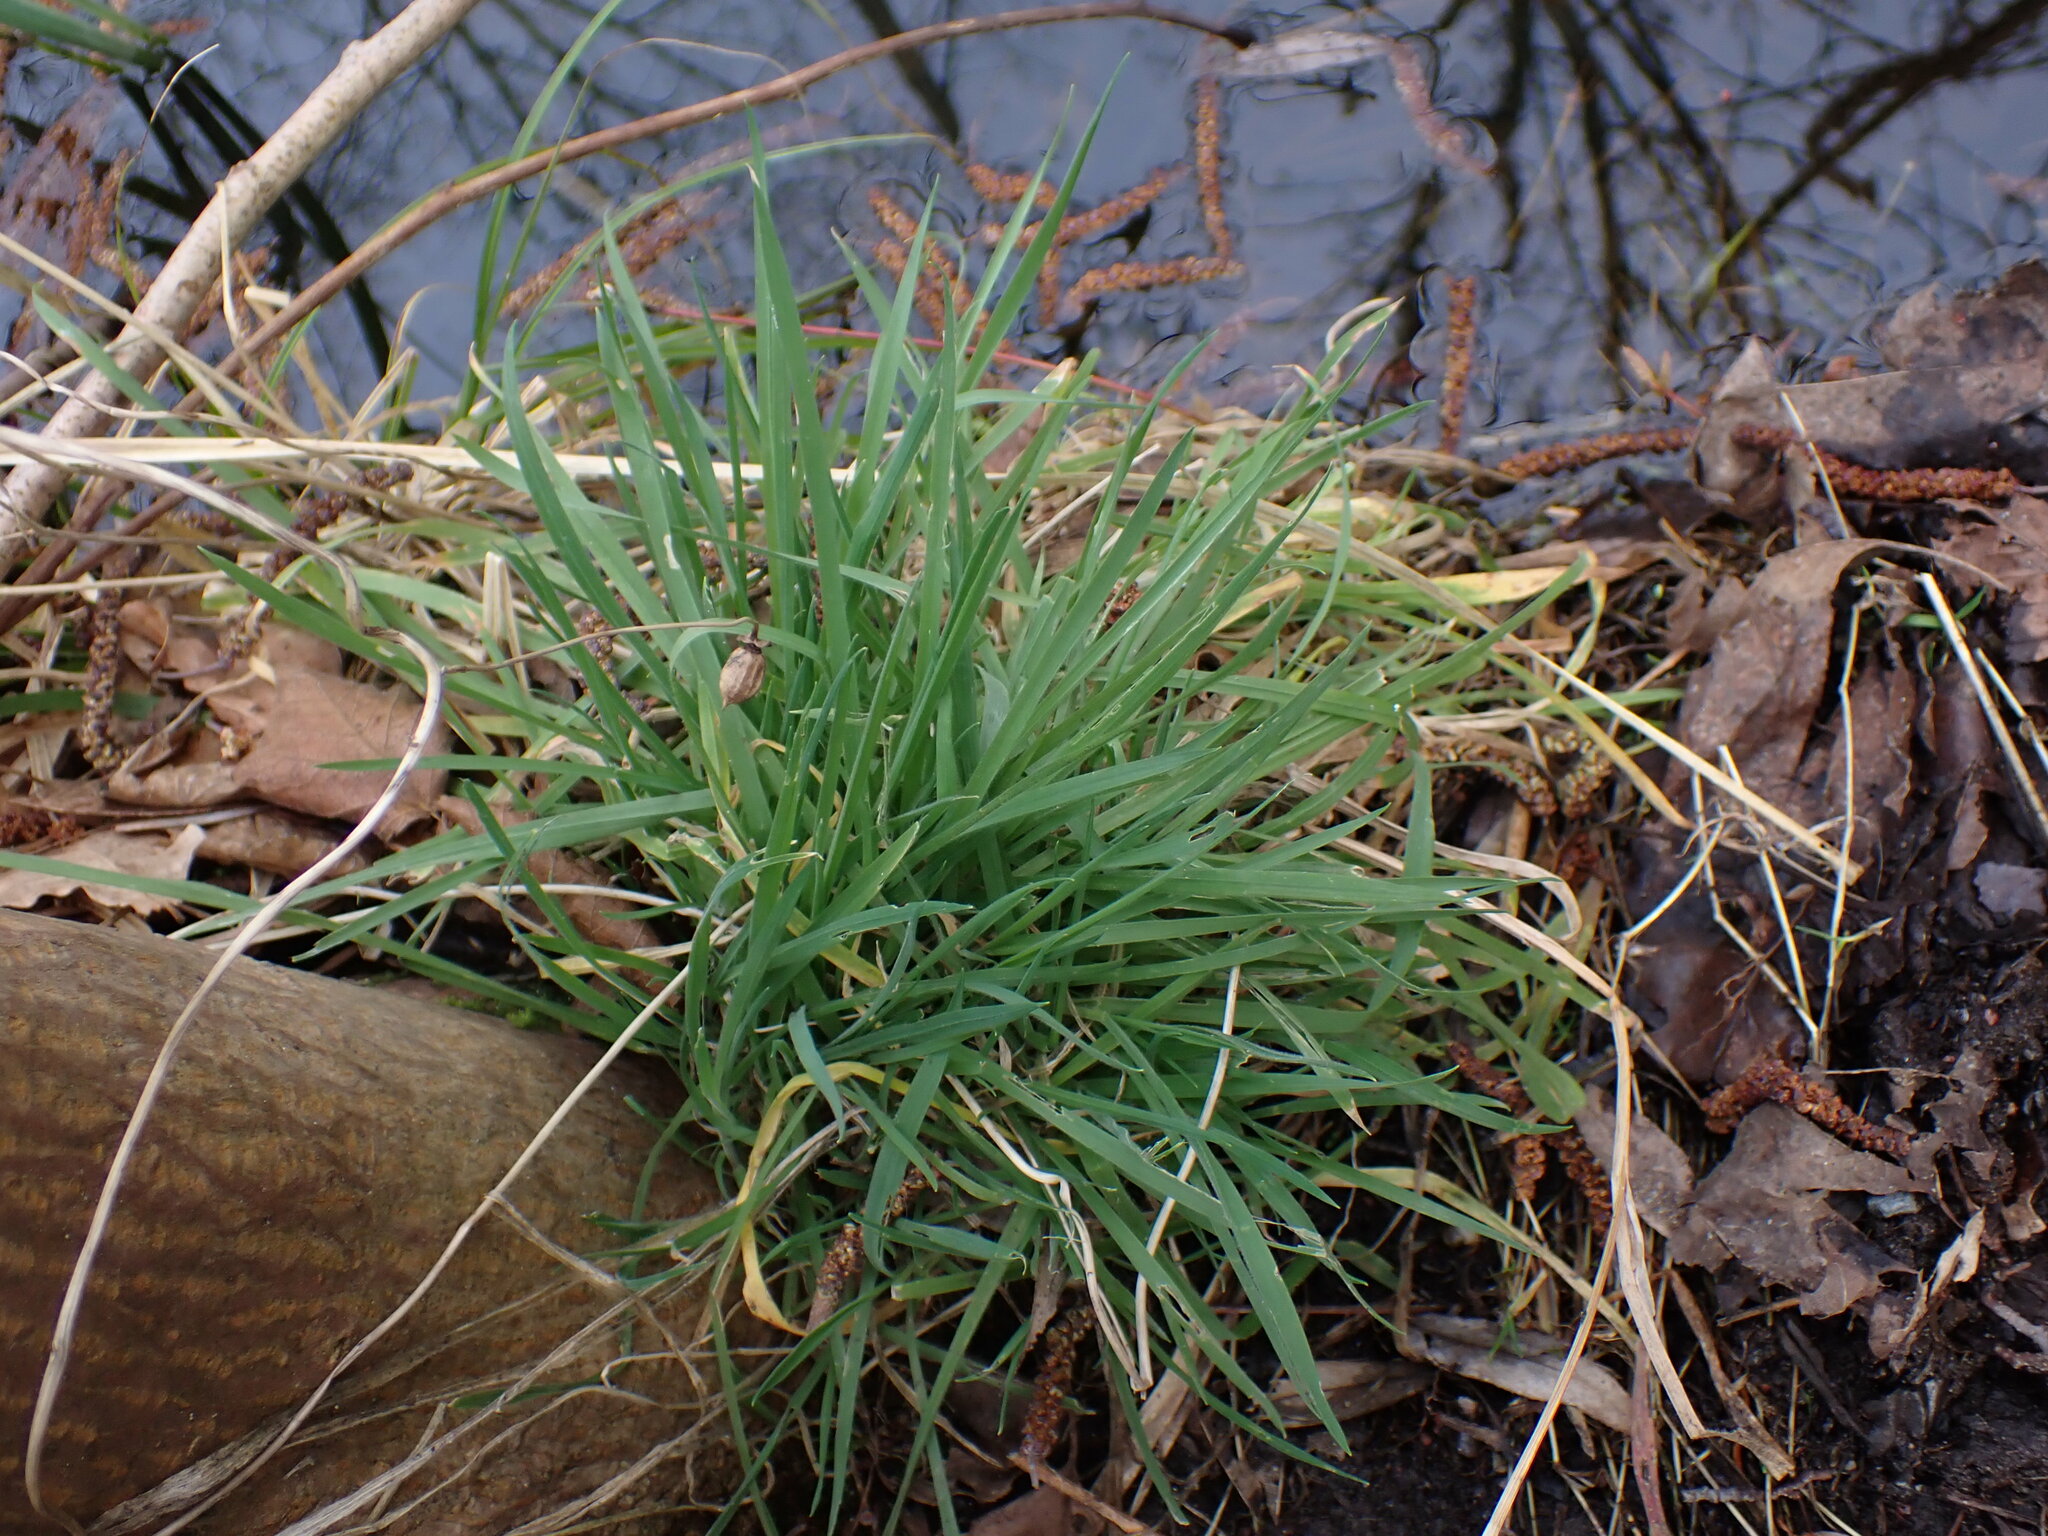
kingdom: Plantae
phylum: Tracheophyta
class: Liliopsida
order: Poales
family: Poaceae
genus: Holcus
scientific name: Holcus lanatus
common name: Yorkshire-fog
